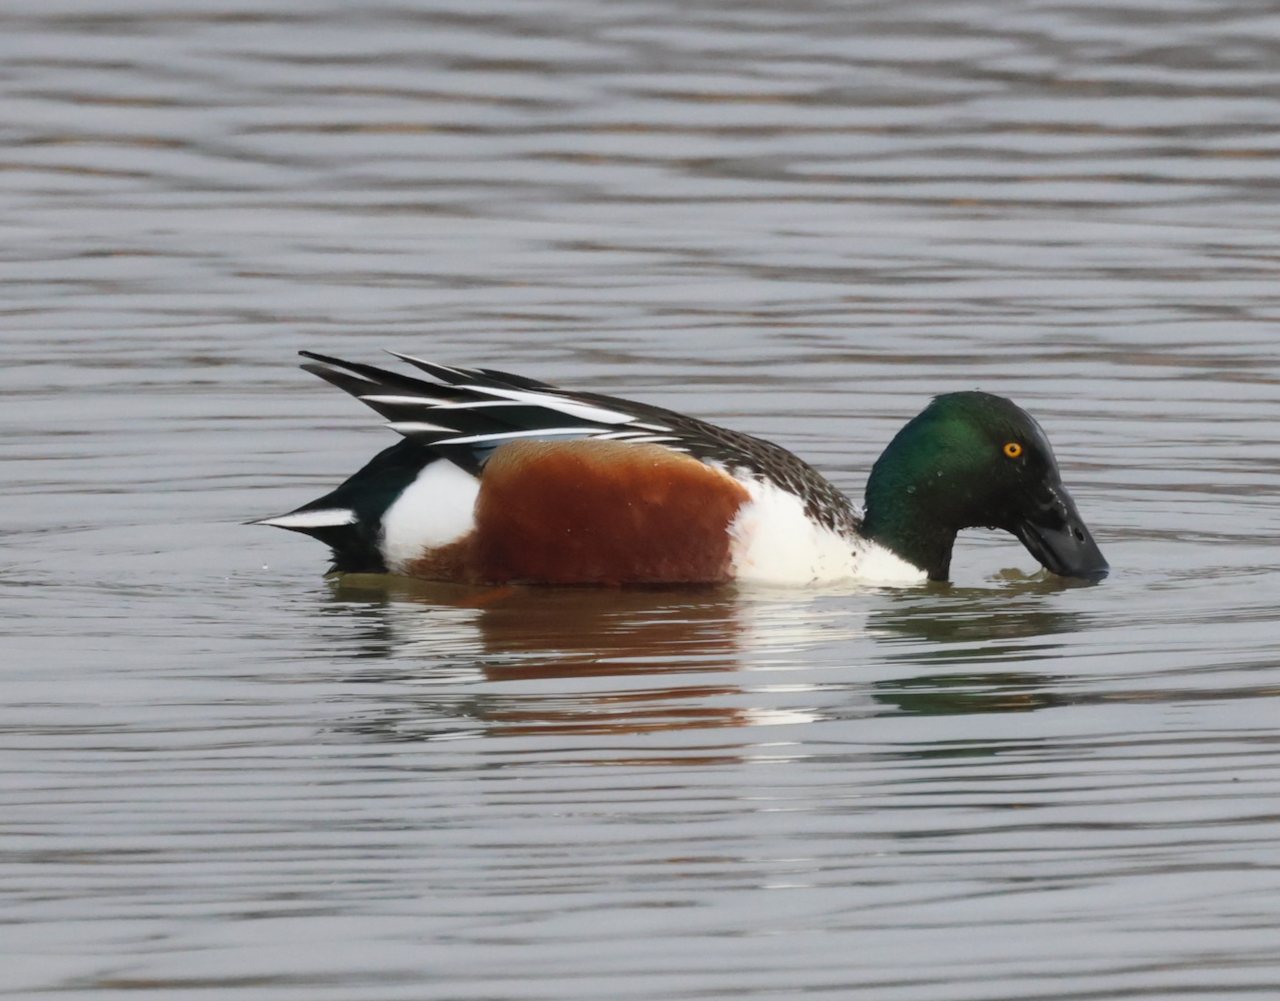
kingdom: Animalia
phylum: Chordata
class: Aves
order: Anseriformes
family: Anatidae
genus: Spatula
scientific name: Spatula clypeata
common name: Northern shoveler
